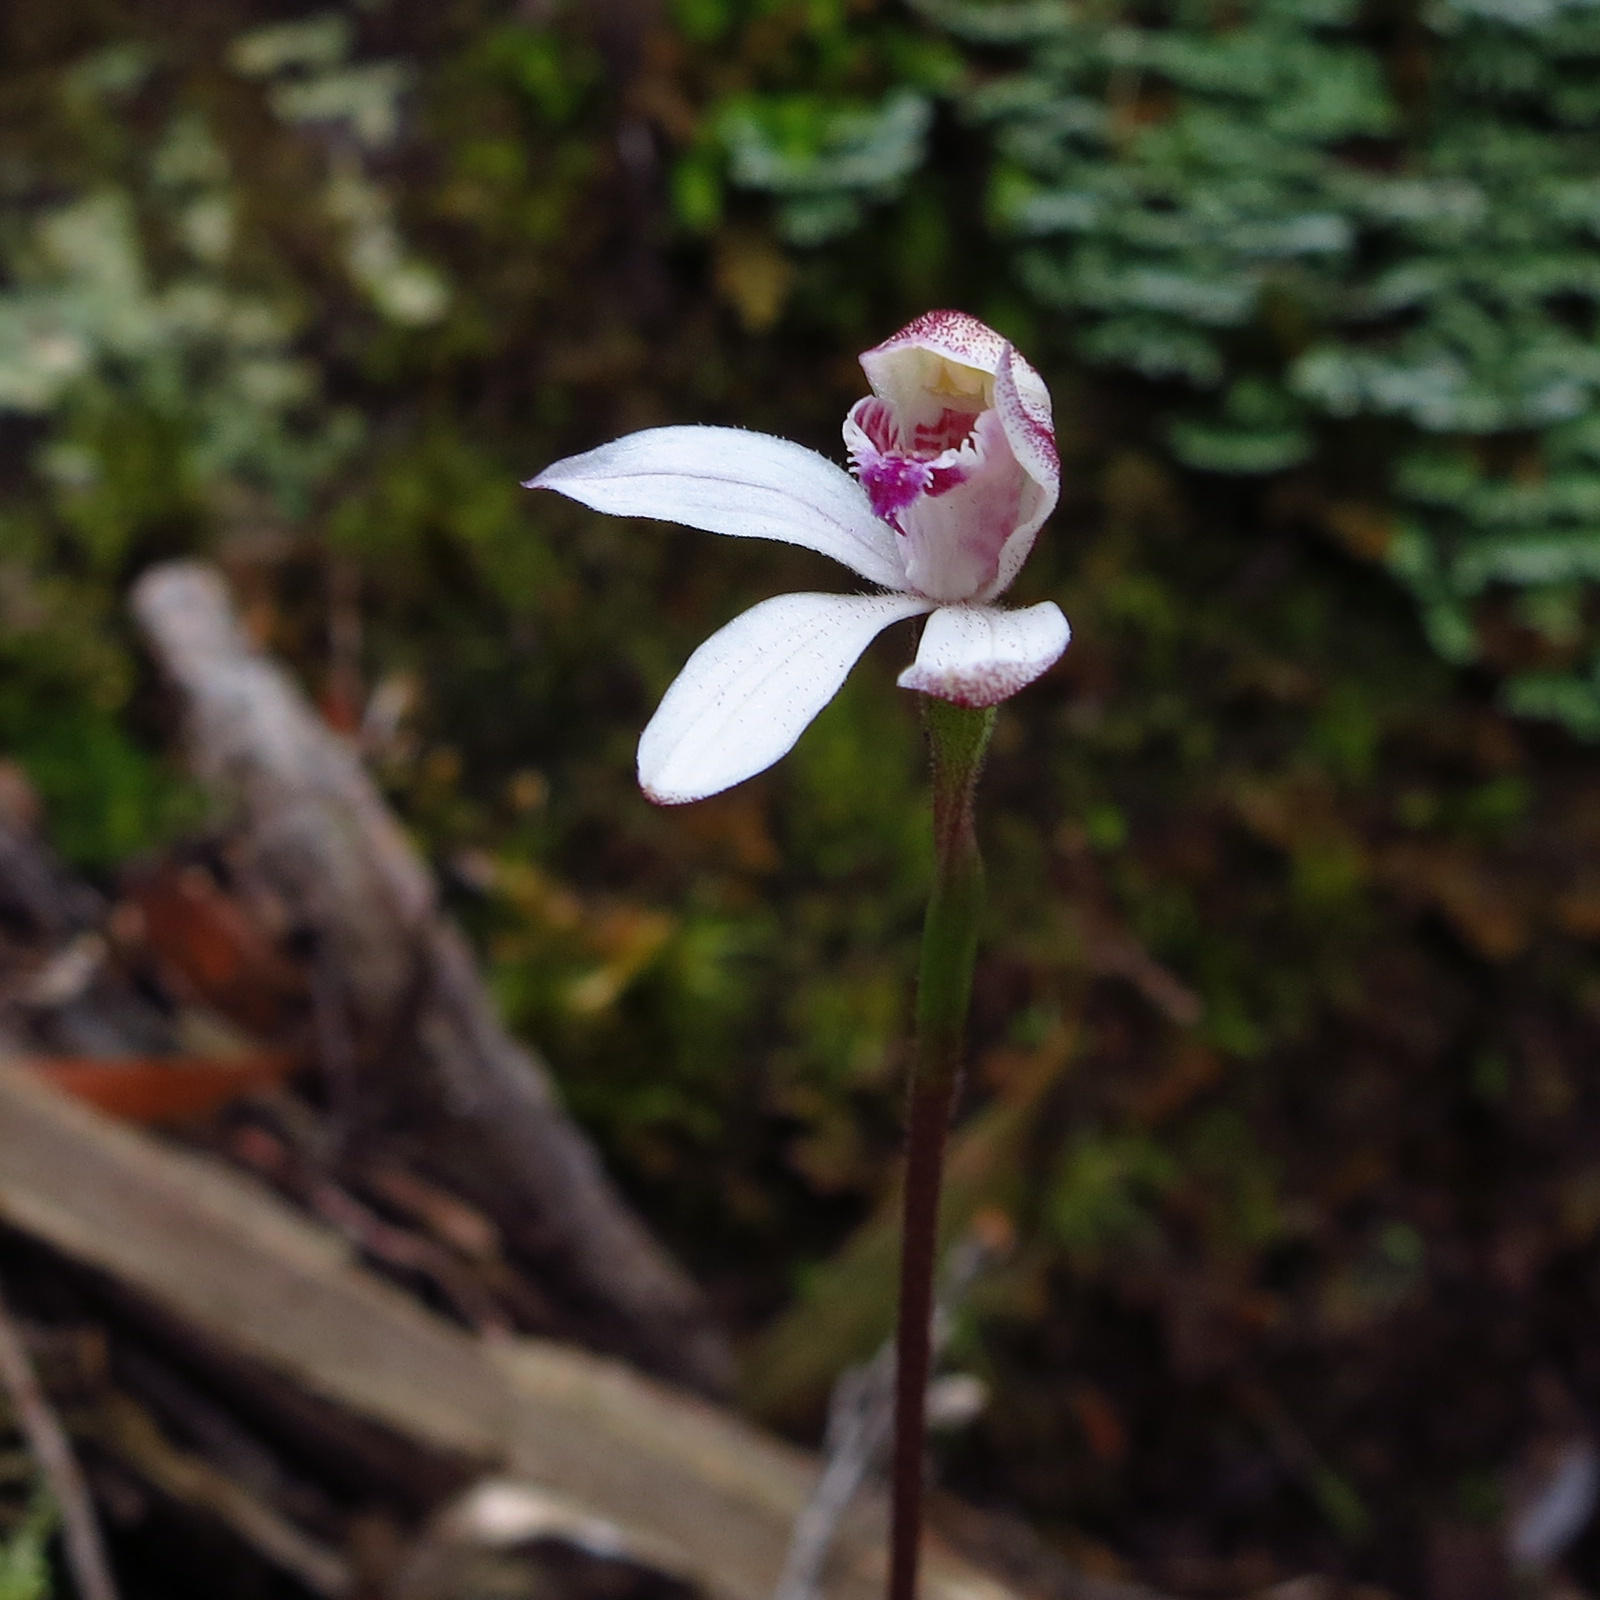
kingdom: Plantae
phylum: Tracheophyta
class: Liliopsida
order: Asparagales
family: Orchidaceae
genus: Caladenia
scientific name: Caladenia alpina
